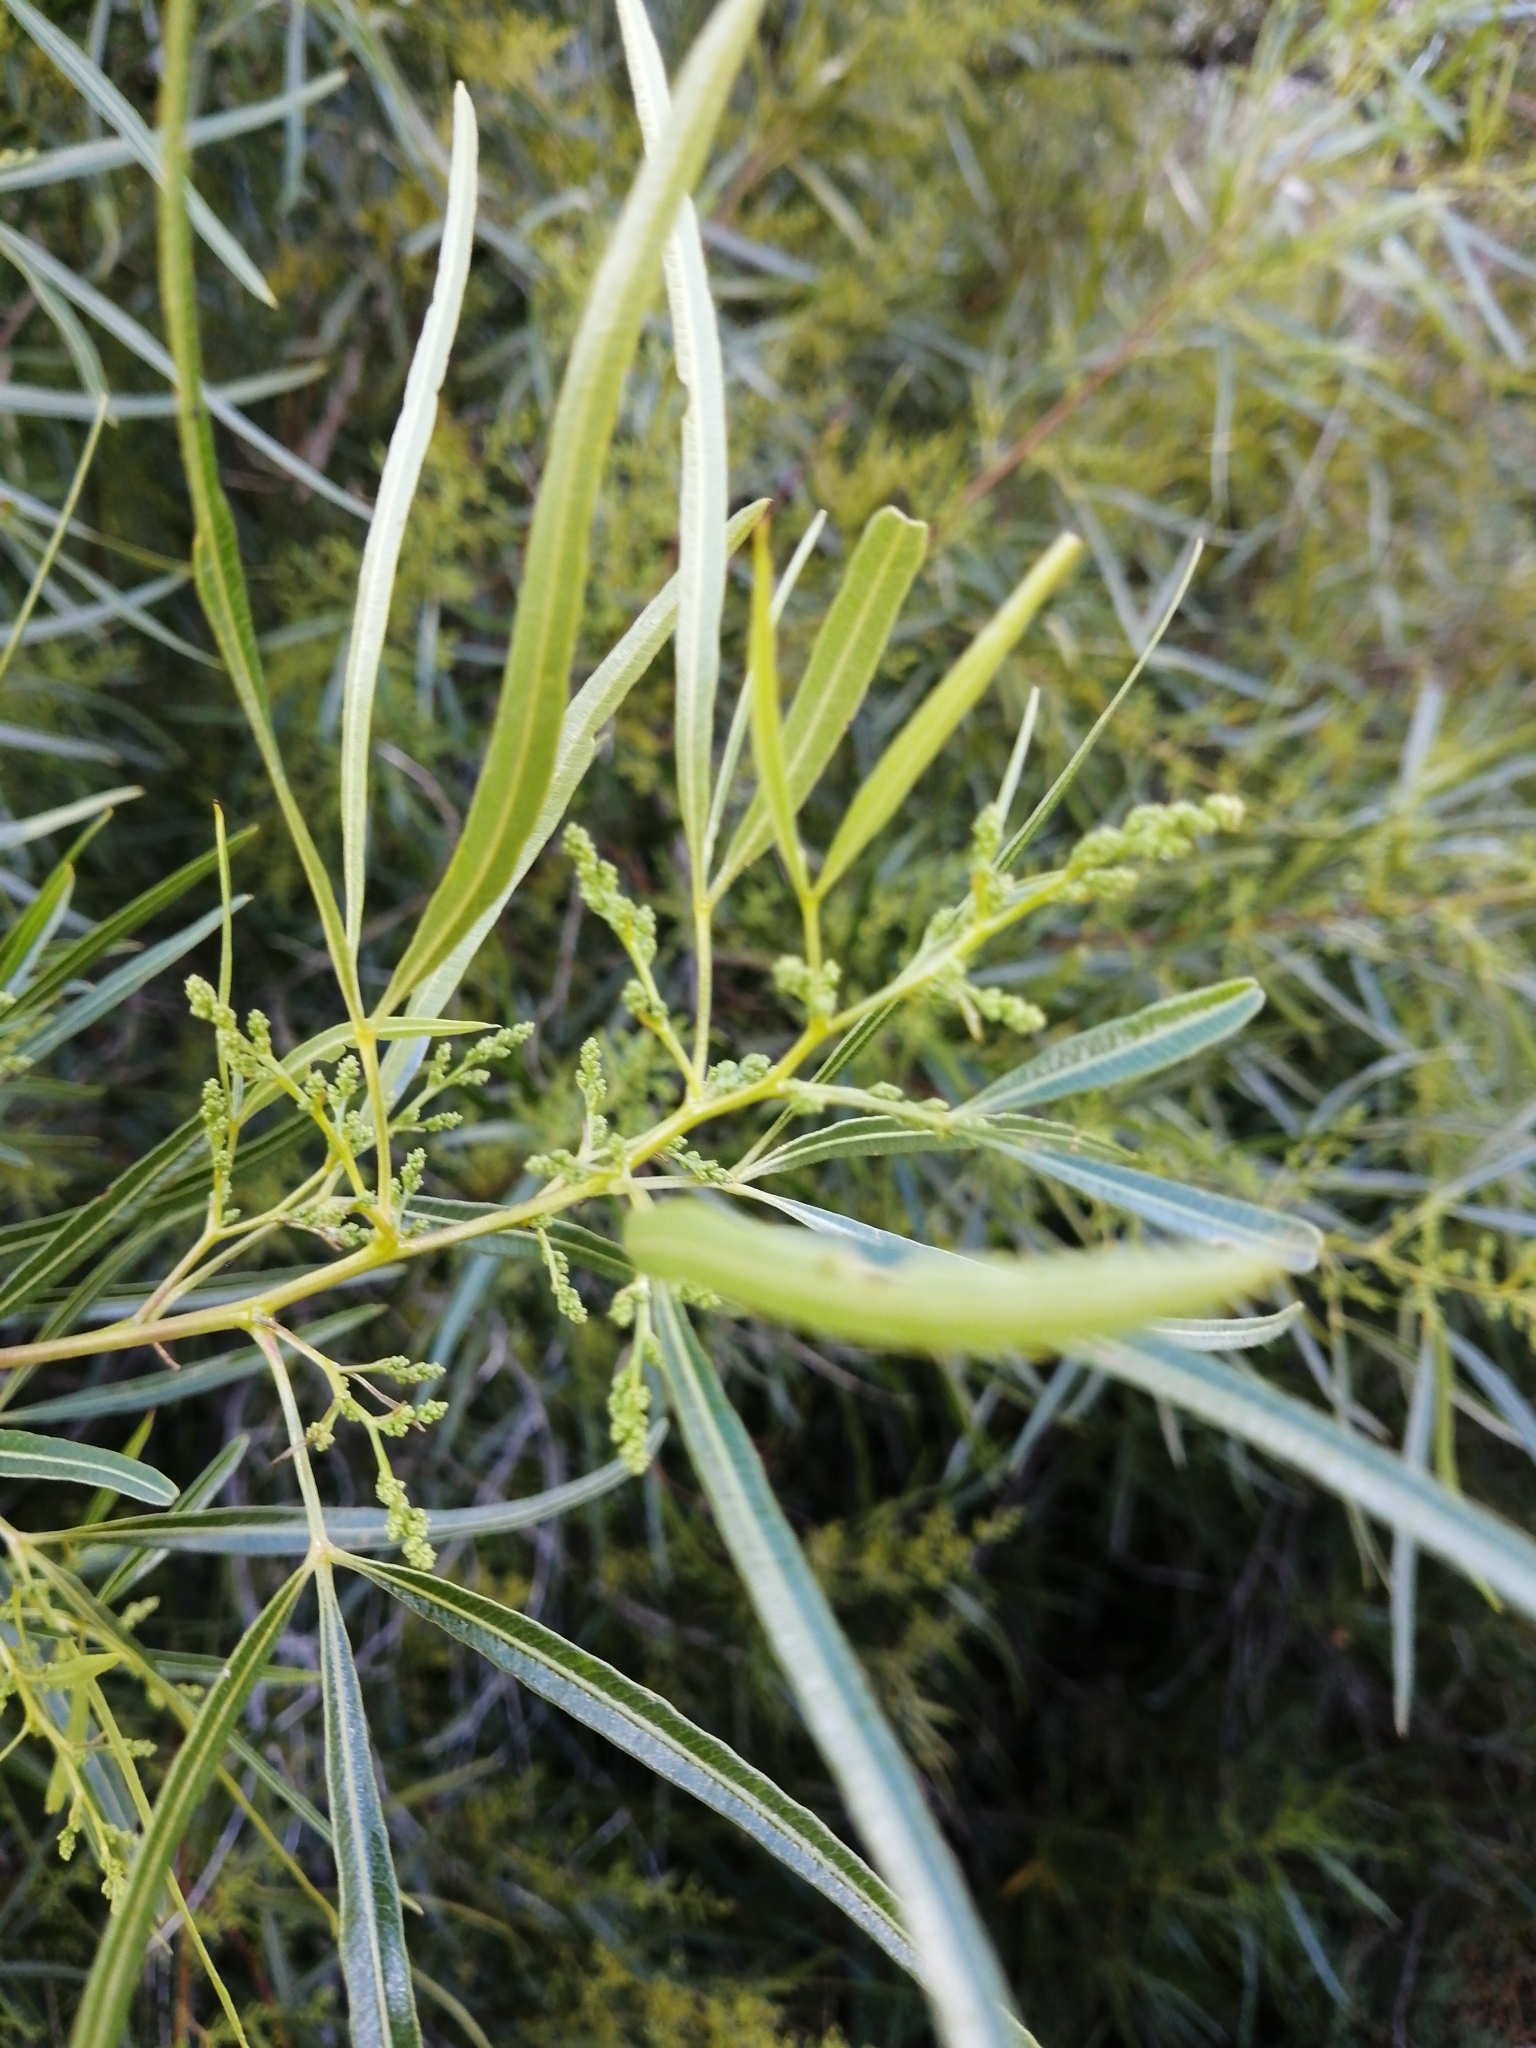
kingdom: Plantae
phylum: Tracheophyta
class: Magnoliopsida
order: Sapindales
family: Anacardiaceae
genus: Searsia
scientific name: Searsia lancea
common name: Cashew
